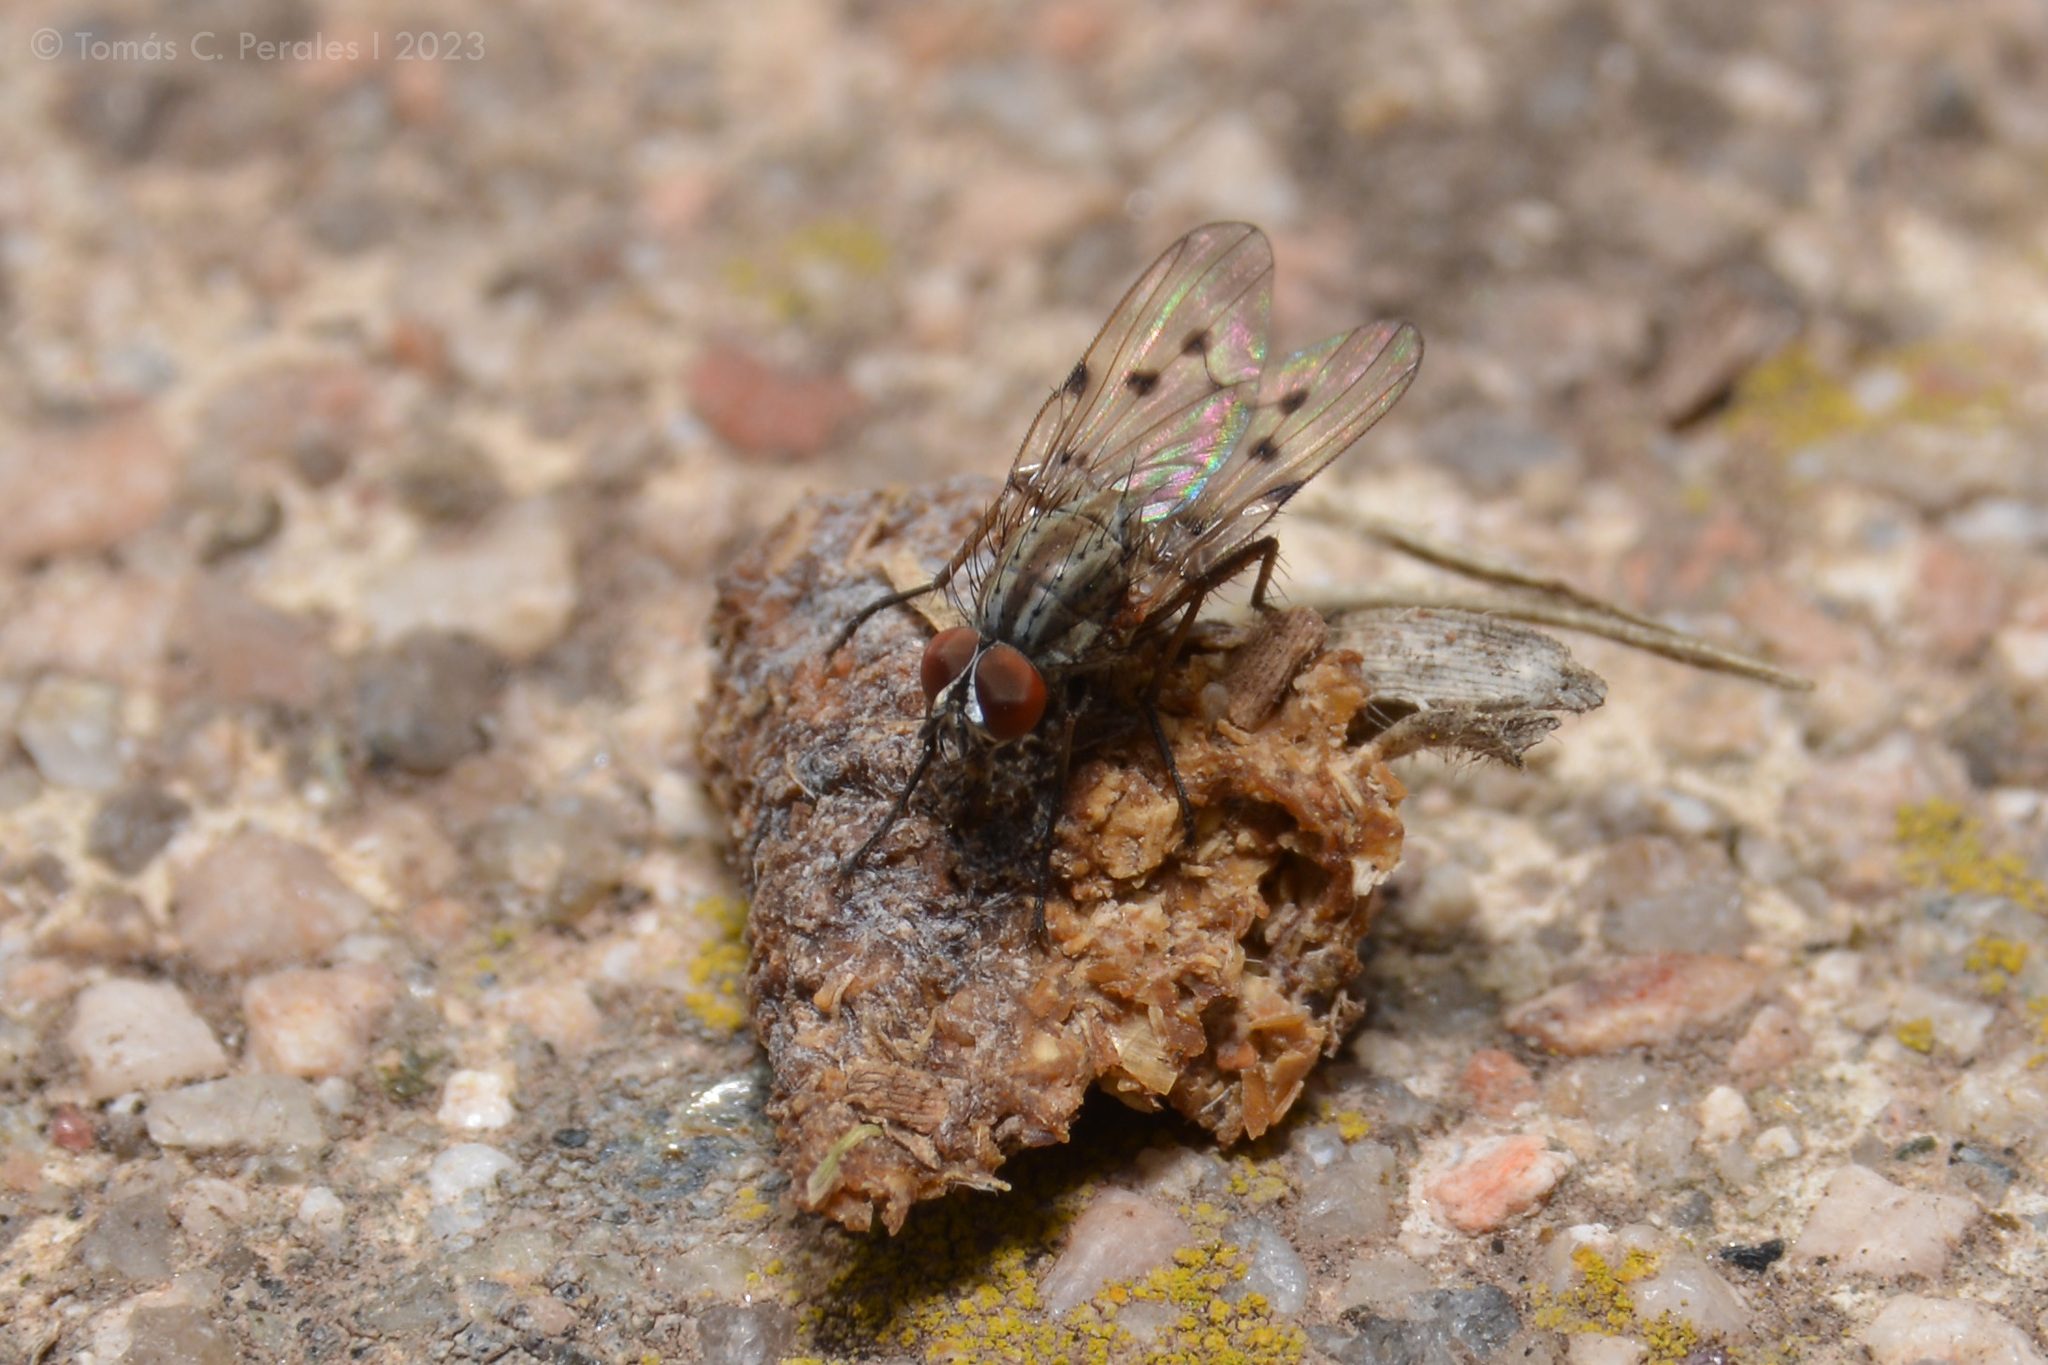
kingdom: Animalia
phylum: Arthropoda
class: Insecta
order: Diptera
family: Anthomyiidae
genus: Anthomyia
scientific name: Anthomyia punctipennis
